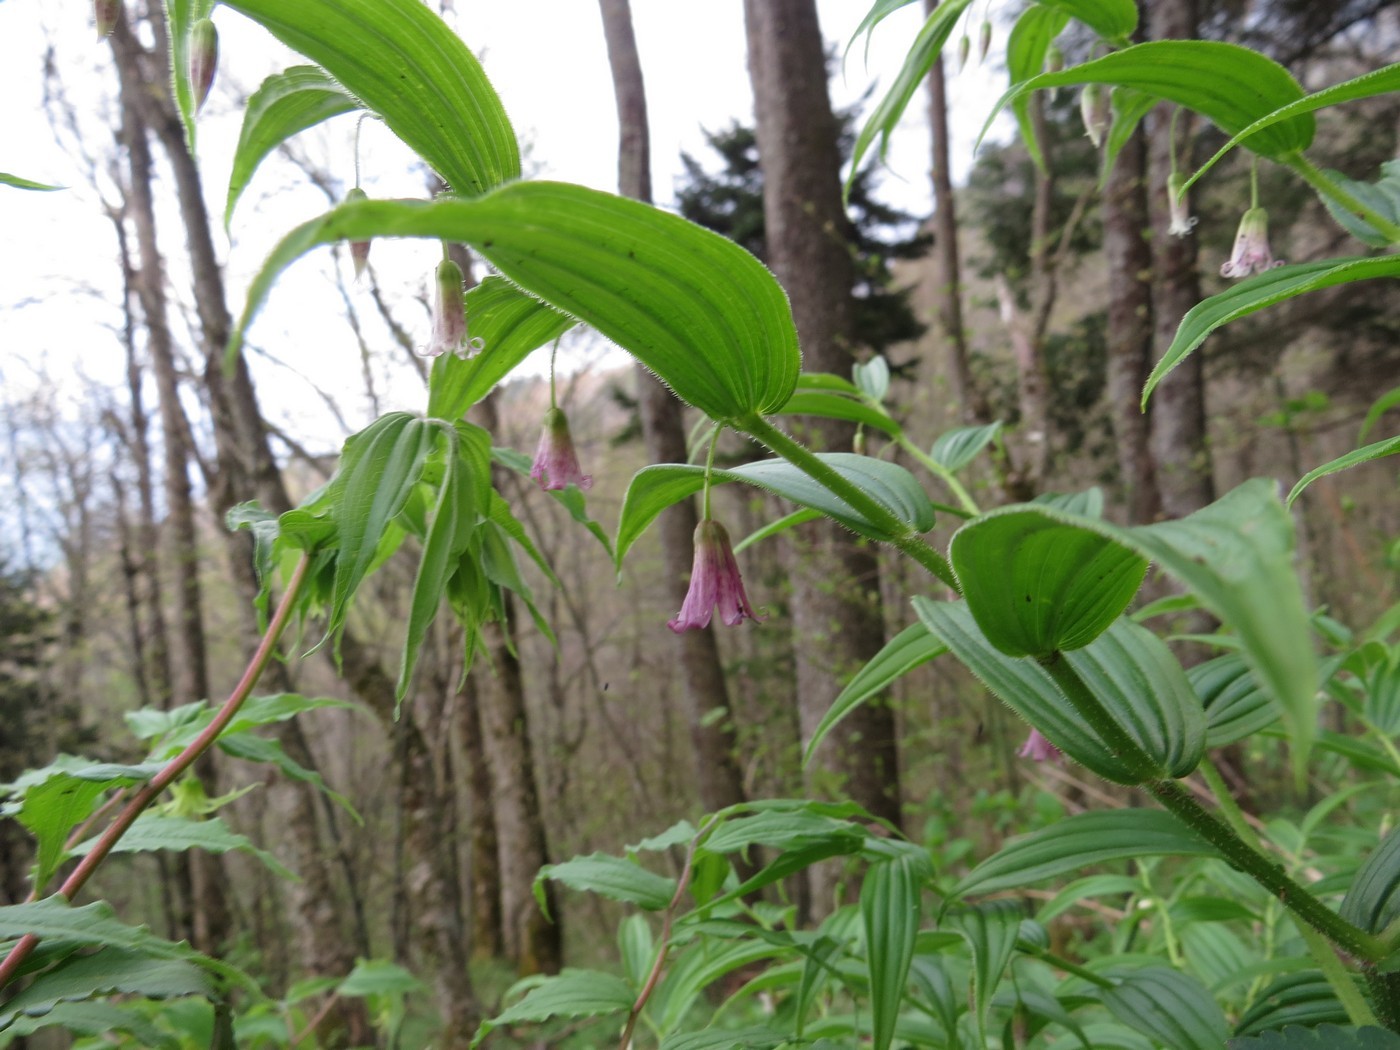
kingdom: Plantae
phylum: Tracheophyta
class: Liliopsida
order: Liliales
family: Liliaceae
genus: Streptopus
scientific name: Streptopus lanceolatus
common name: Rose mandarin
